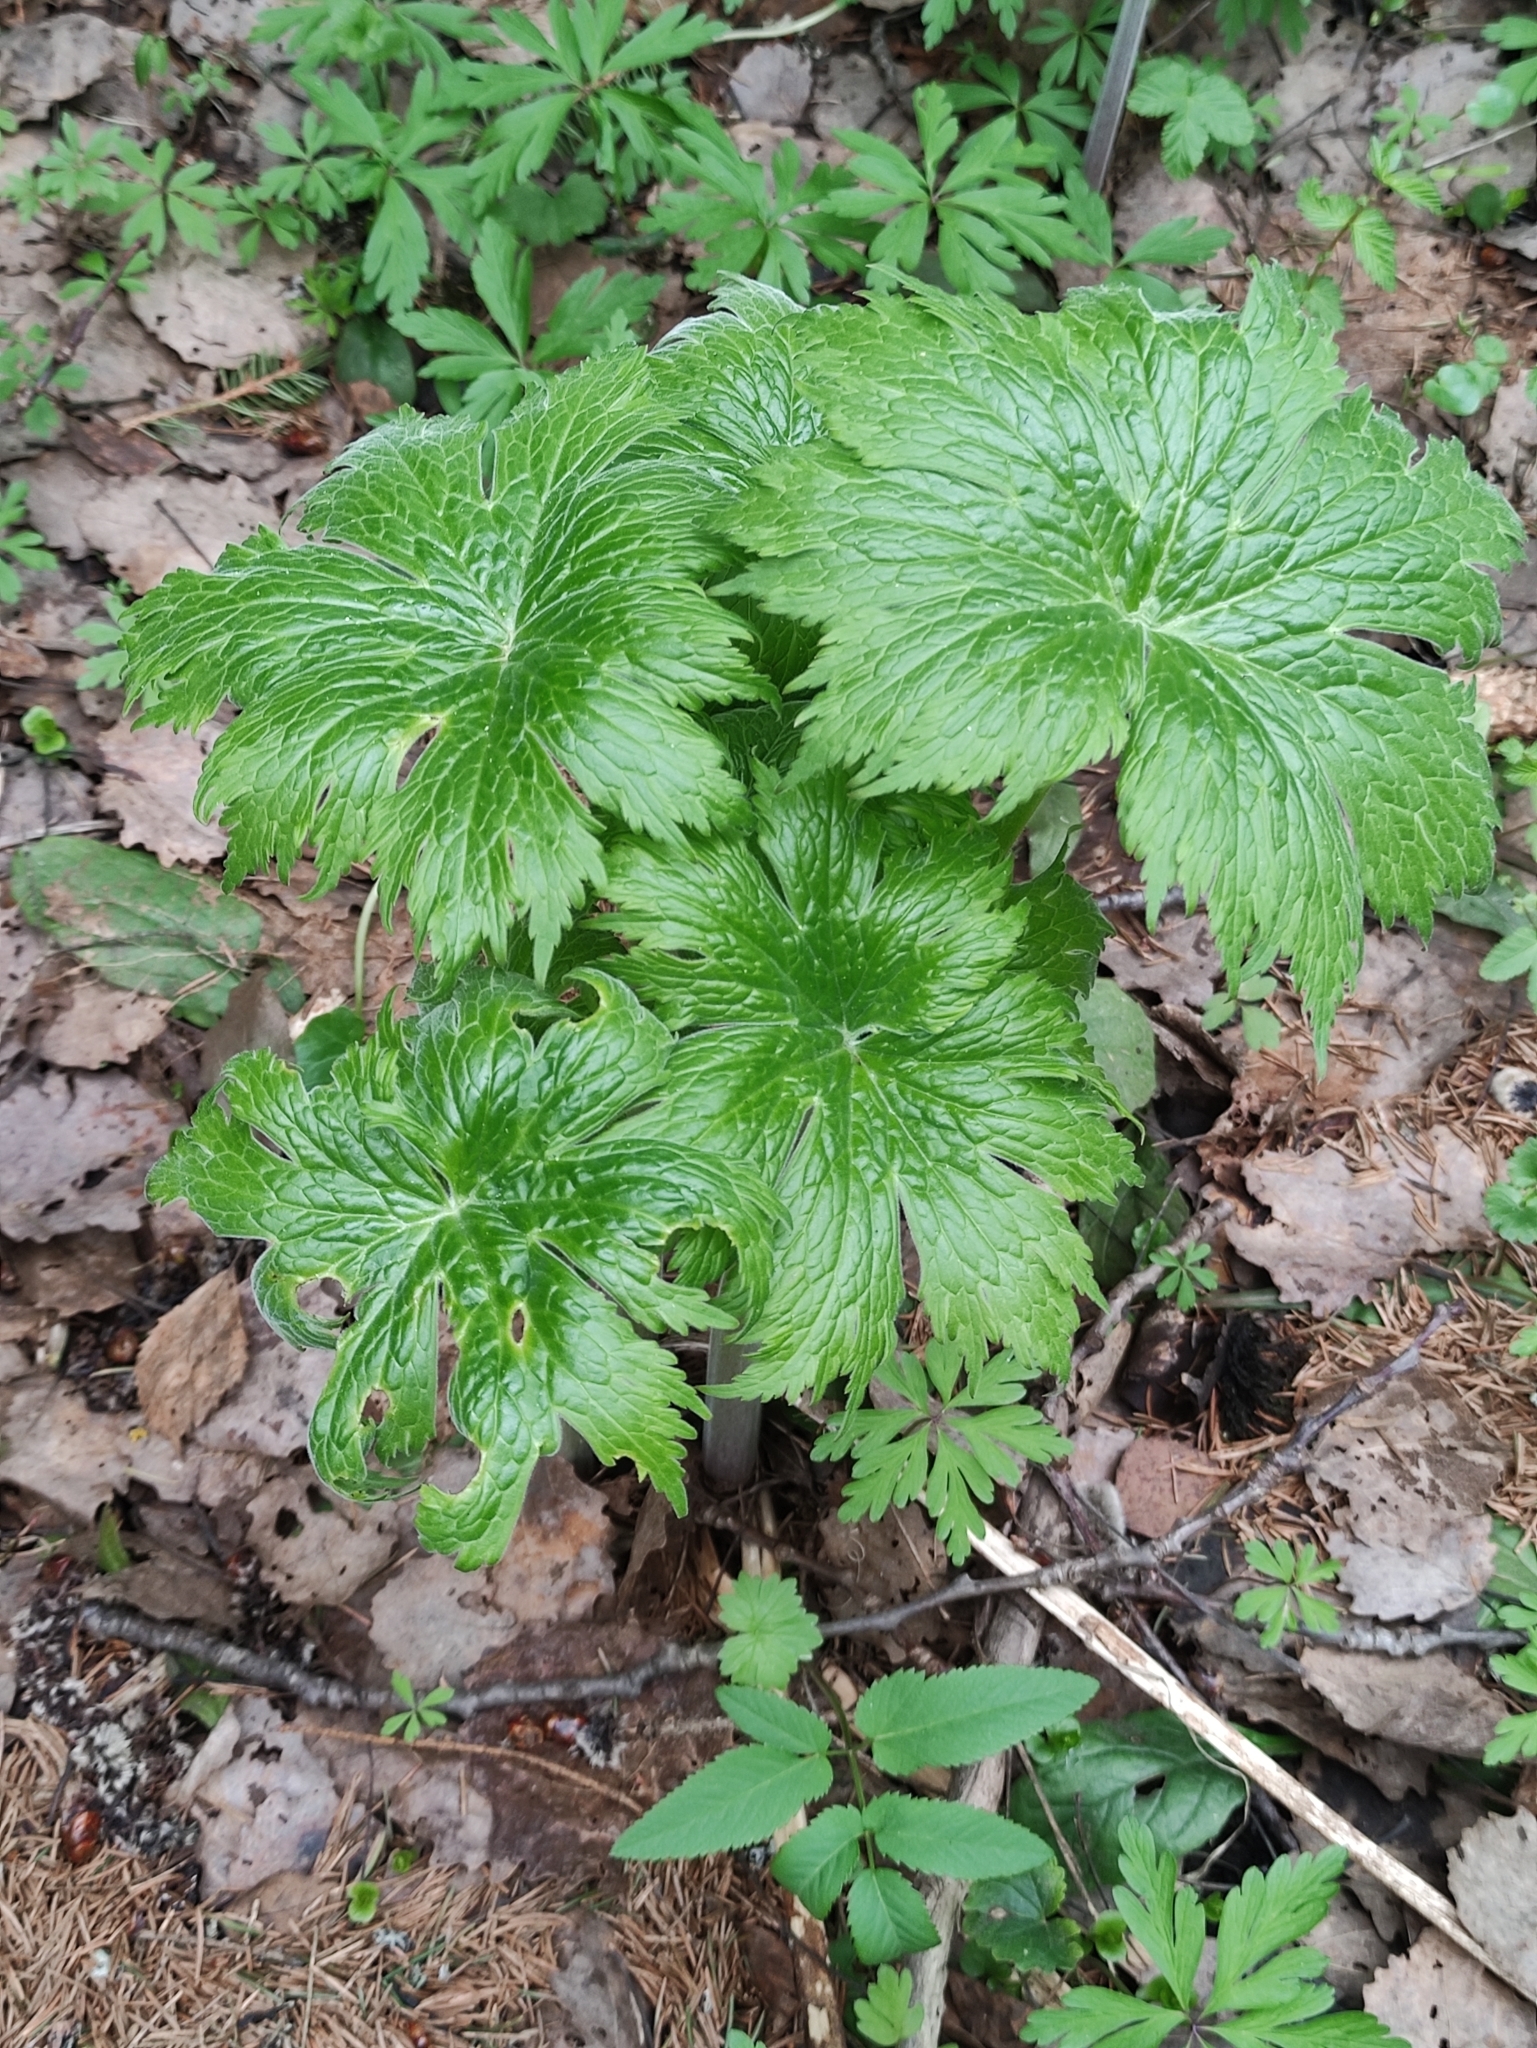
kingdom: Plantae
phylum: Tracheophyta
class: Magnoliopsida
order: Ranunculales
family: Ranunculaceae
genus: Aconitum
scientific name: Aconitum septentrionale
